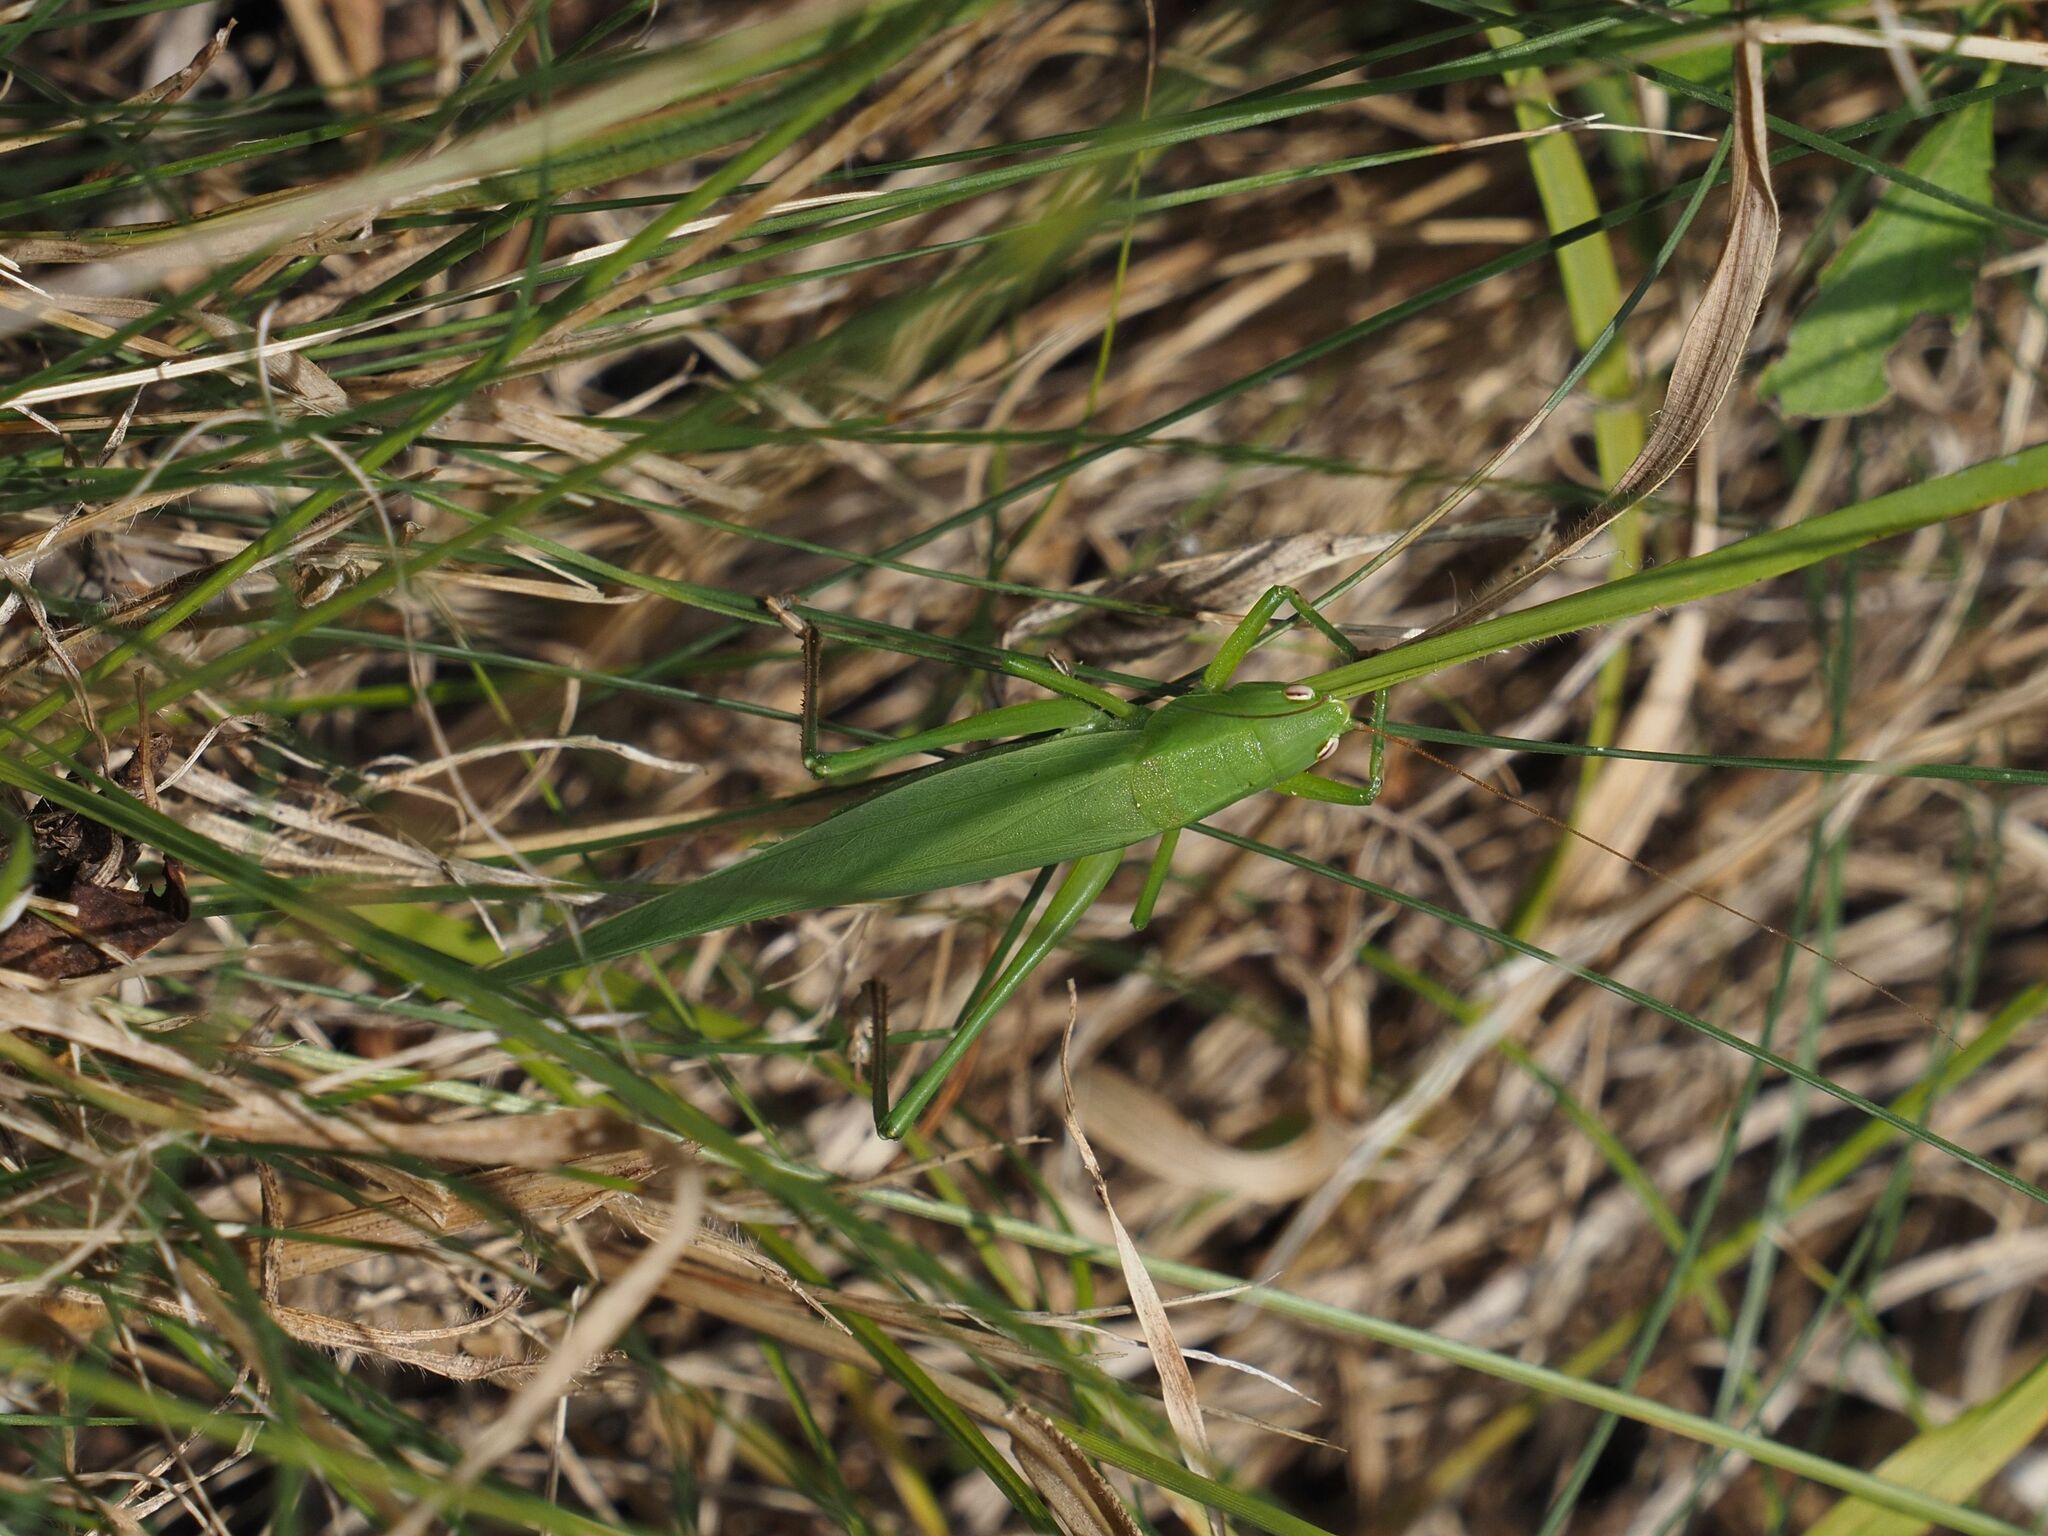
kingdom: Animalia
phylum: Arthropoda
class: Insecta
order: Orthoptera
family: Tettigoniidae
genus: Ruspolia
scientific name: Ruspolia nitidula
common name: Large conehead
